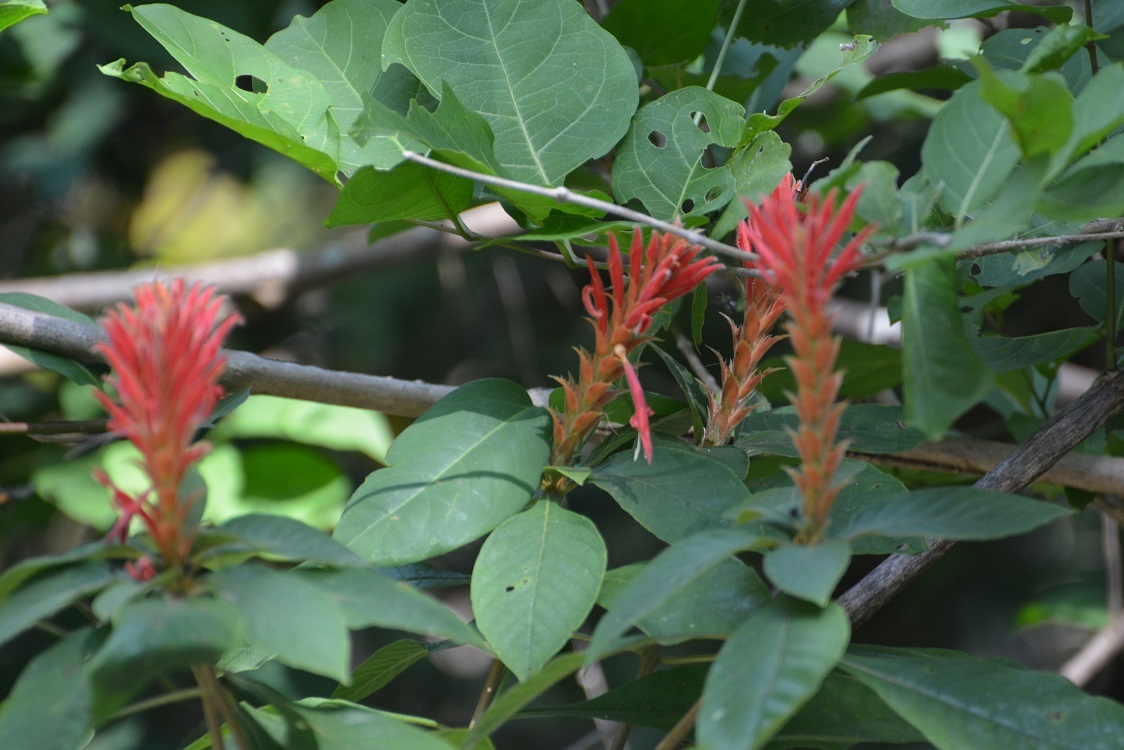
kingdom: Plantae
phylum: Tracheophyta
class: Magnoliopsida
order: Lamiales
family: Acanthaceae
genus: Aphelandra
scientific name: Aphelandra scabra
